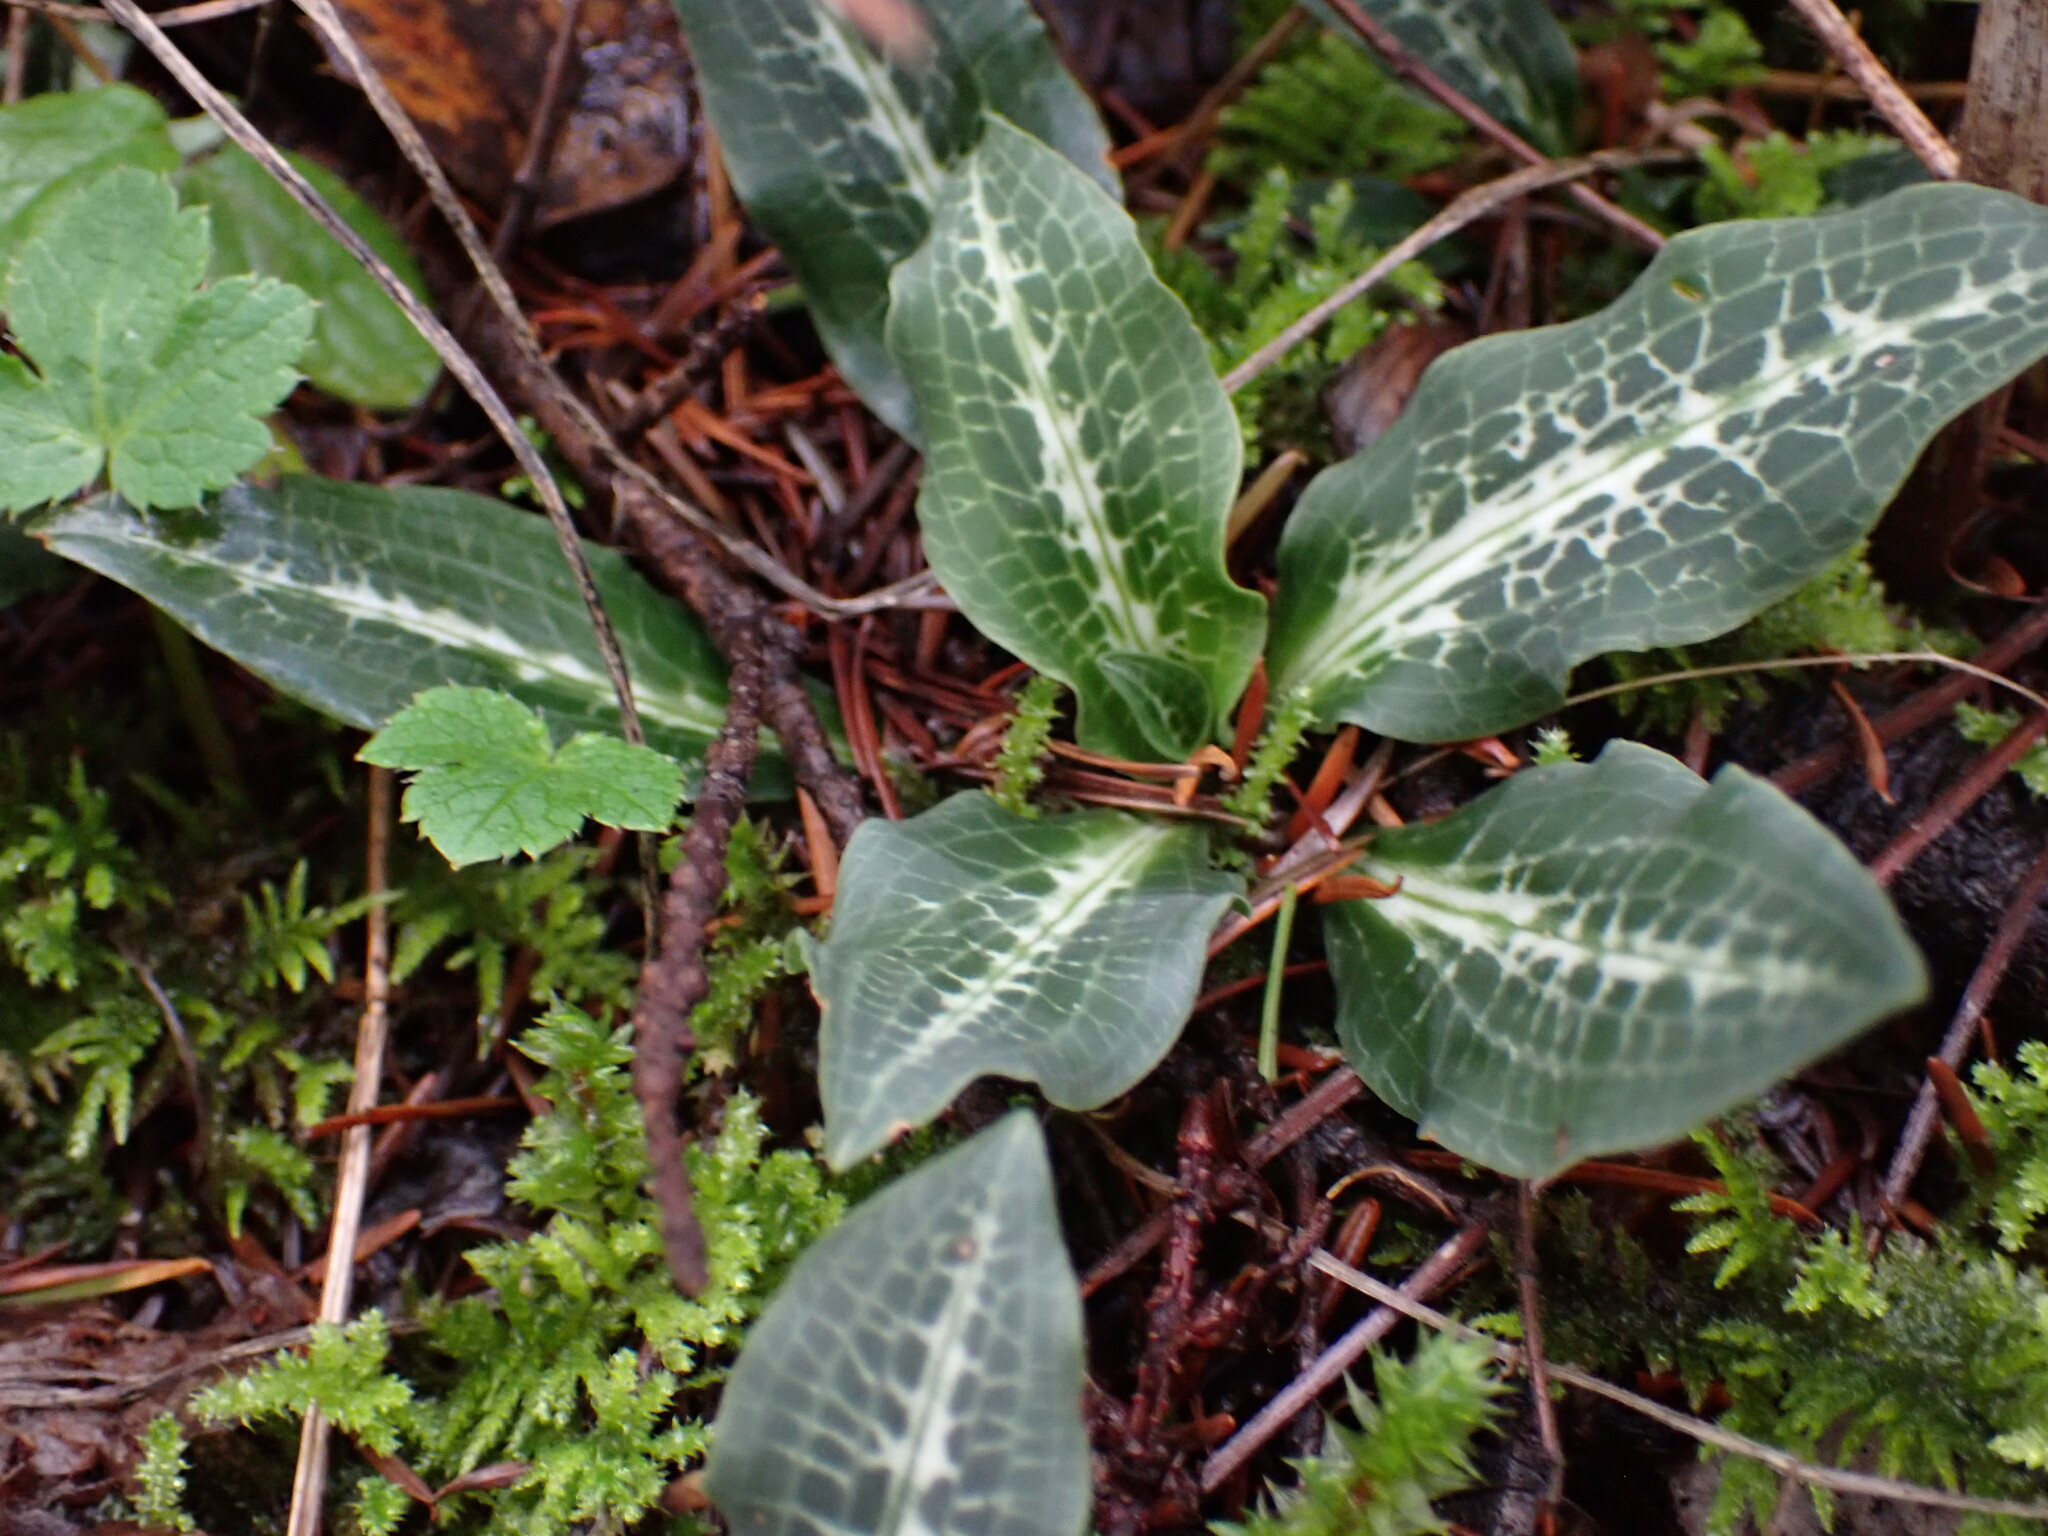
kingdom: Plantae
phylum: Tracheophyta
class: Liliopsida
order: Asparagales
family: Orchidaceae
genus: Goodyera
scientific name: Goodyera oblongifolia
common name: Giant rattlesnake-plantain
